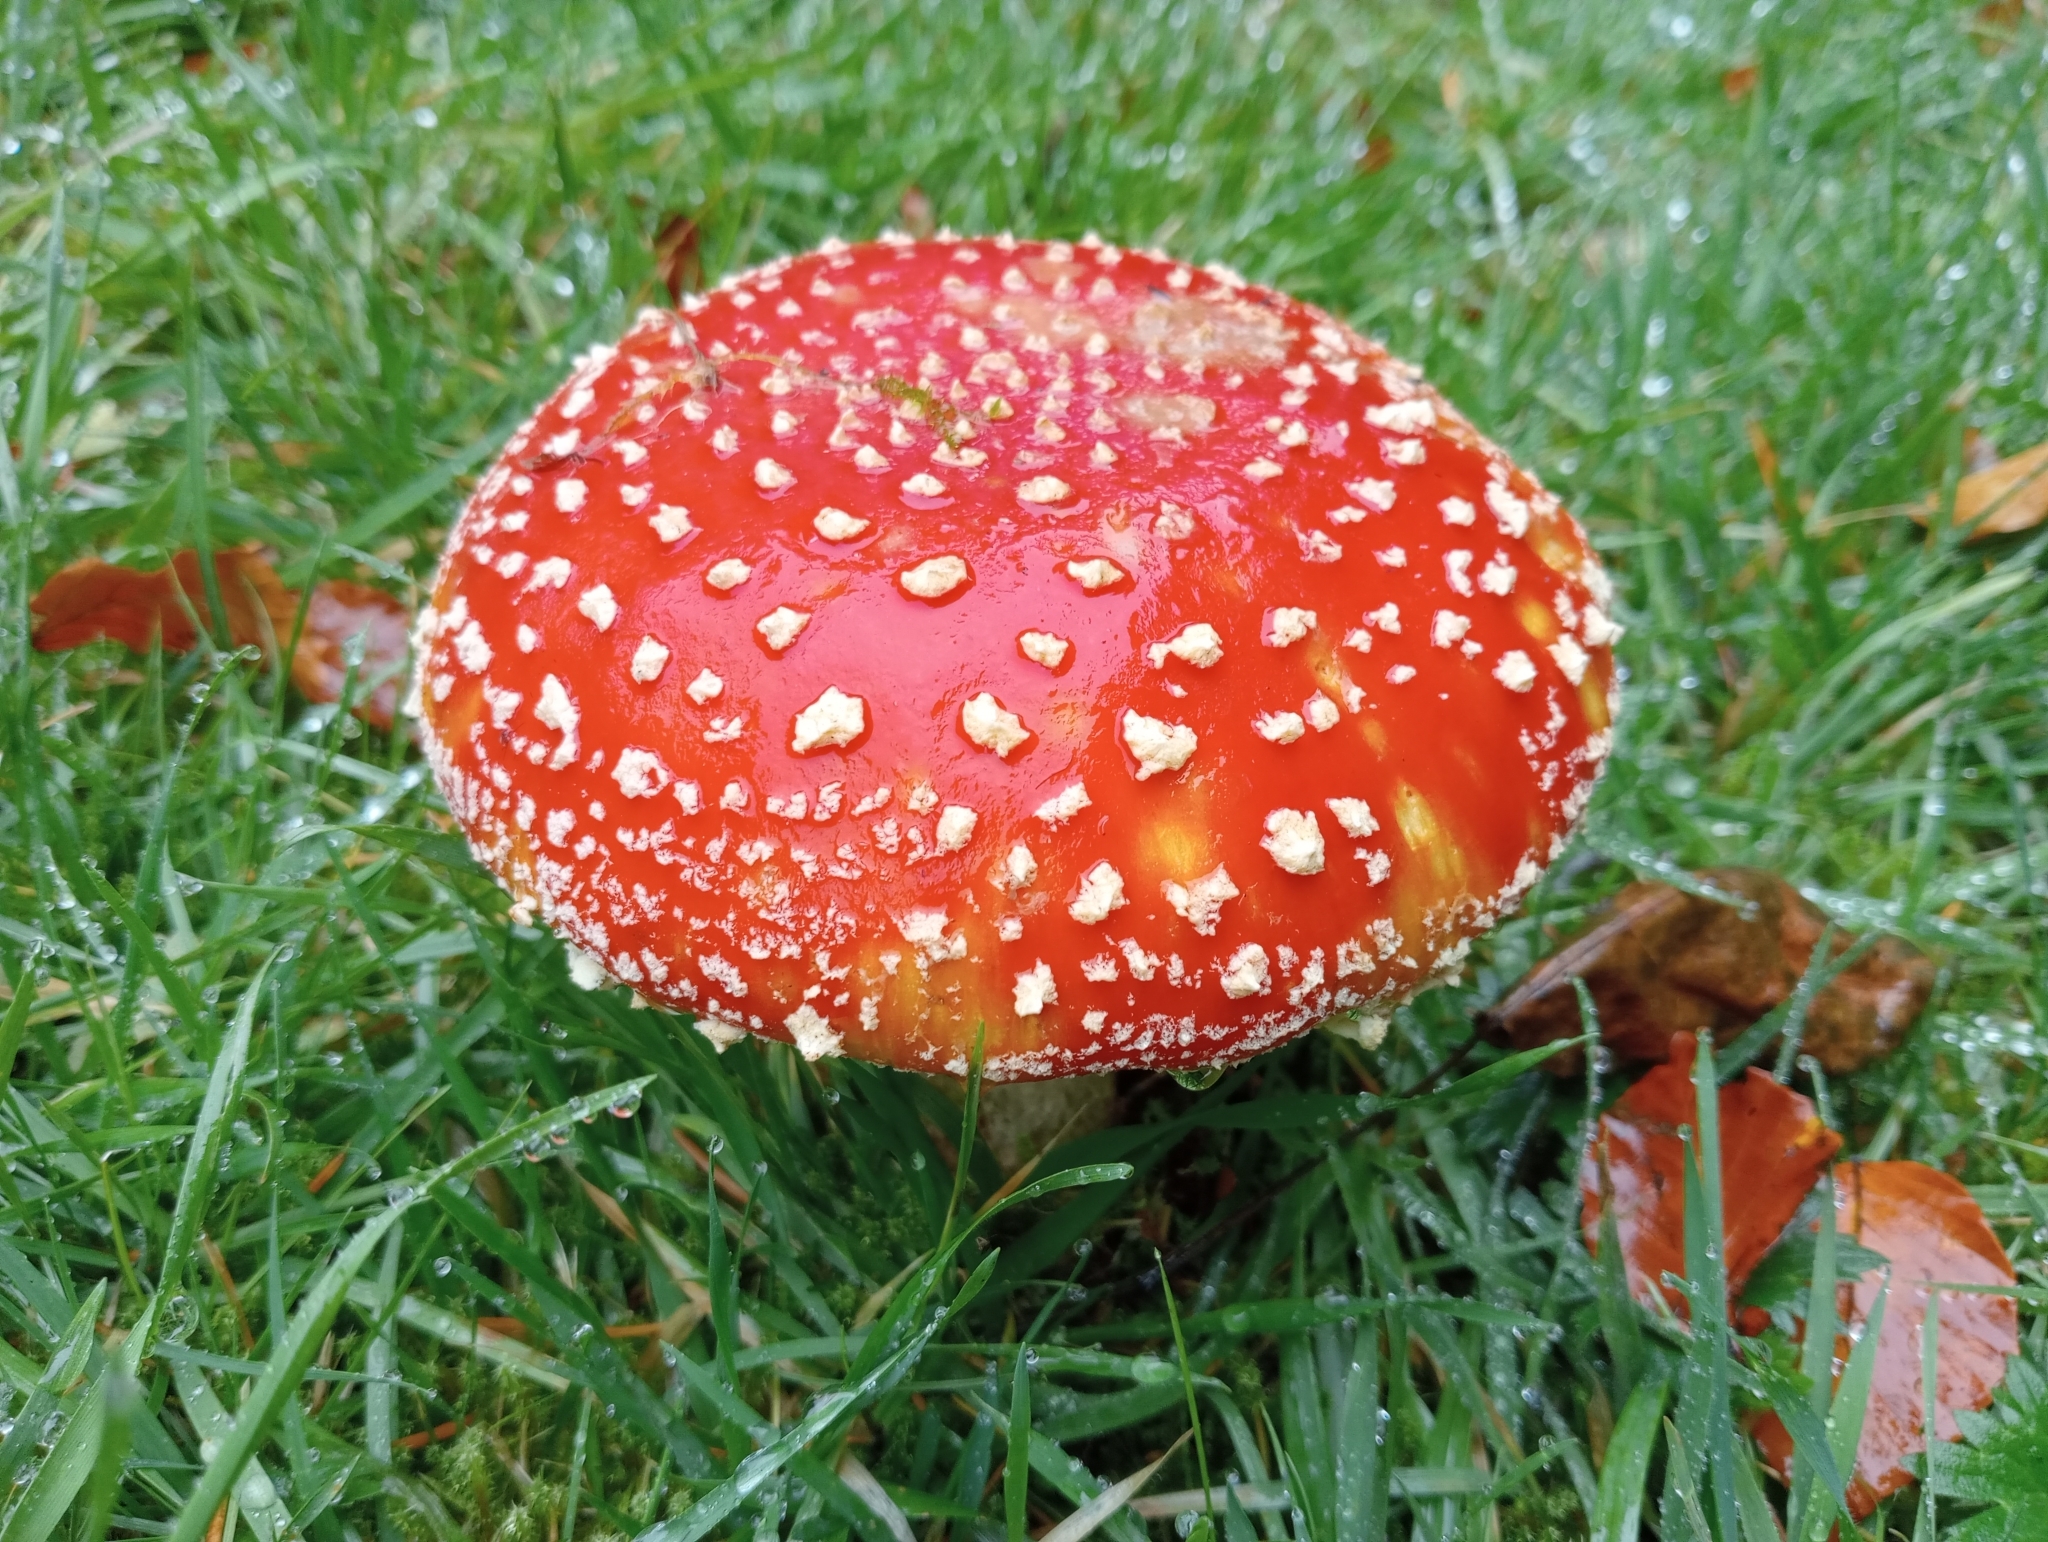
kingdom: Fungi
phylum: Basidiomycota
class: Agaricomycetes
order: Agaricales
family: Amanitaceae
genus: Amanita
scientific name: Amanita muscaria
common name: Fly agaric
